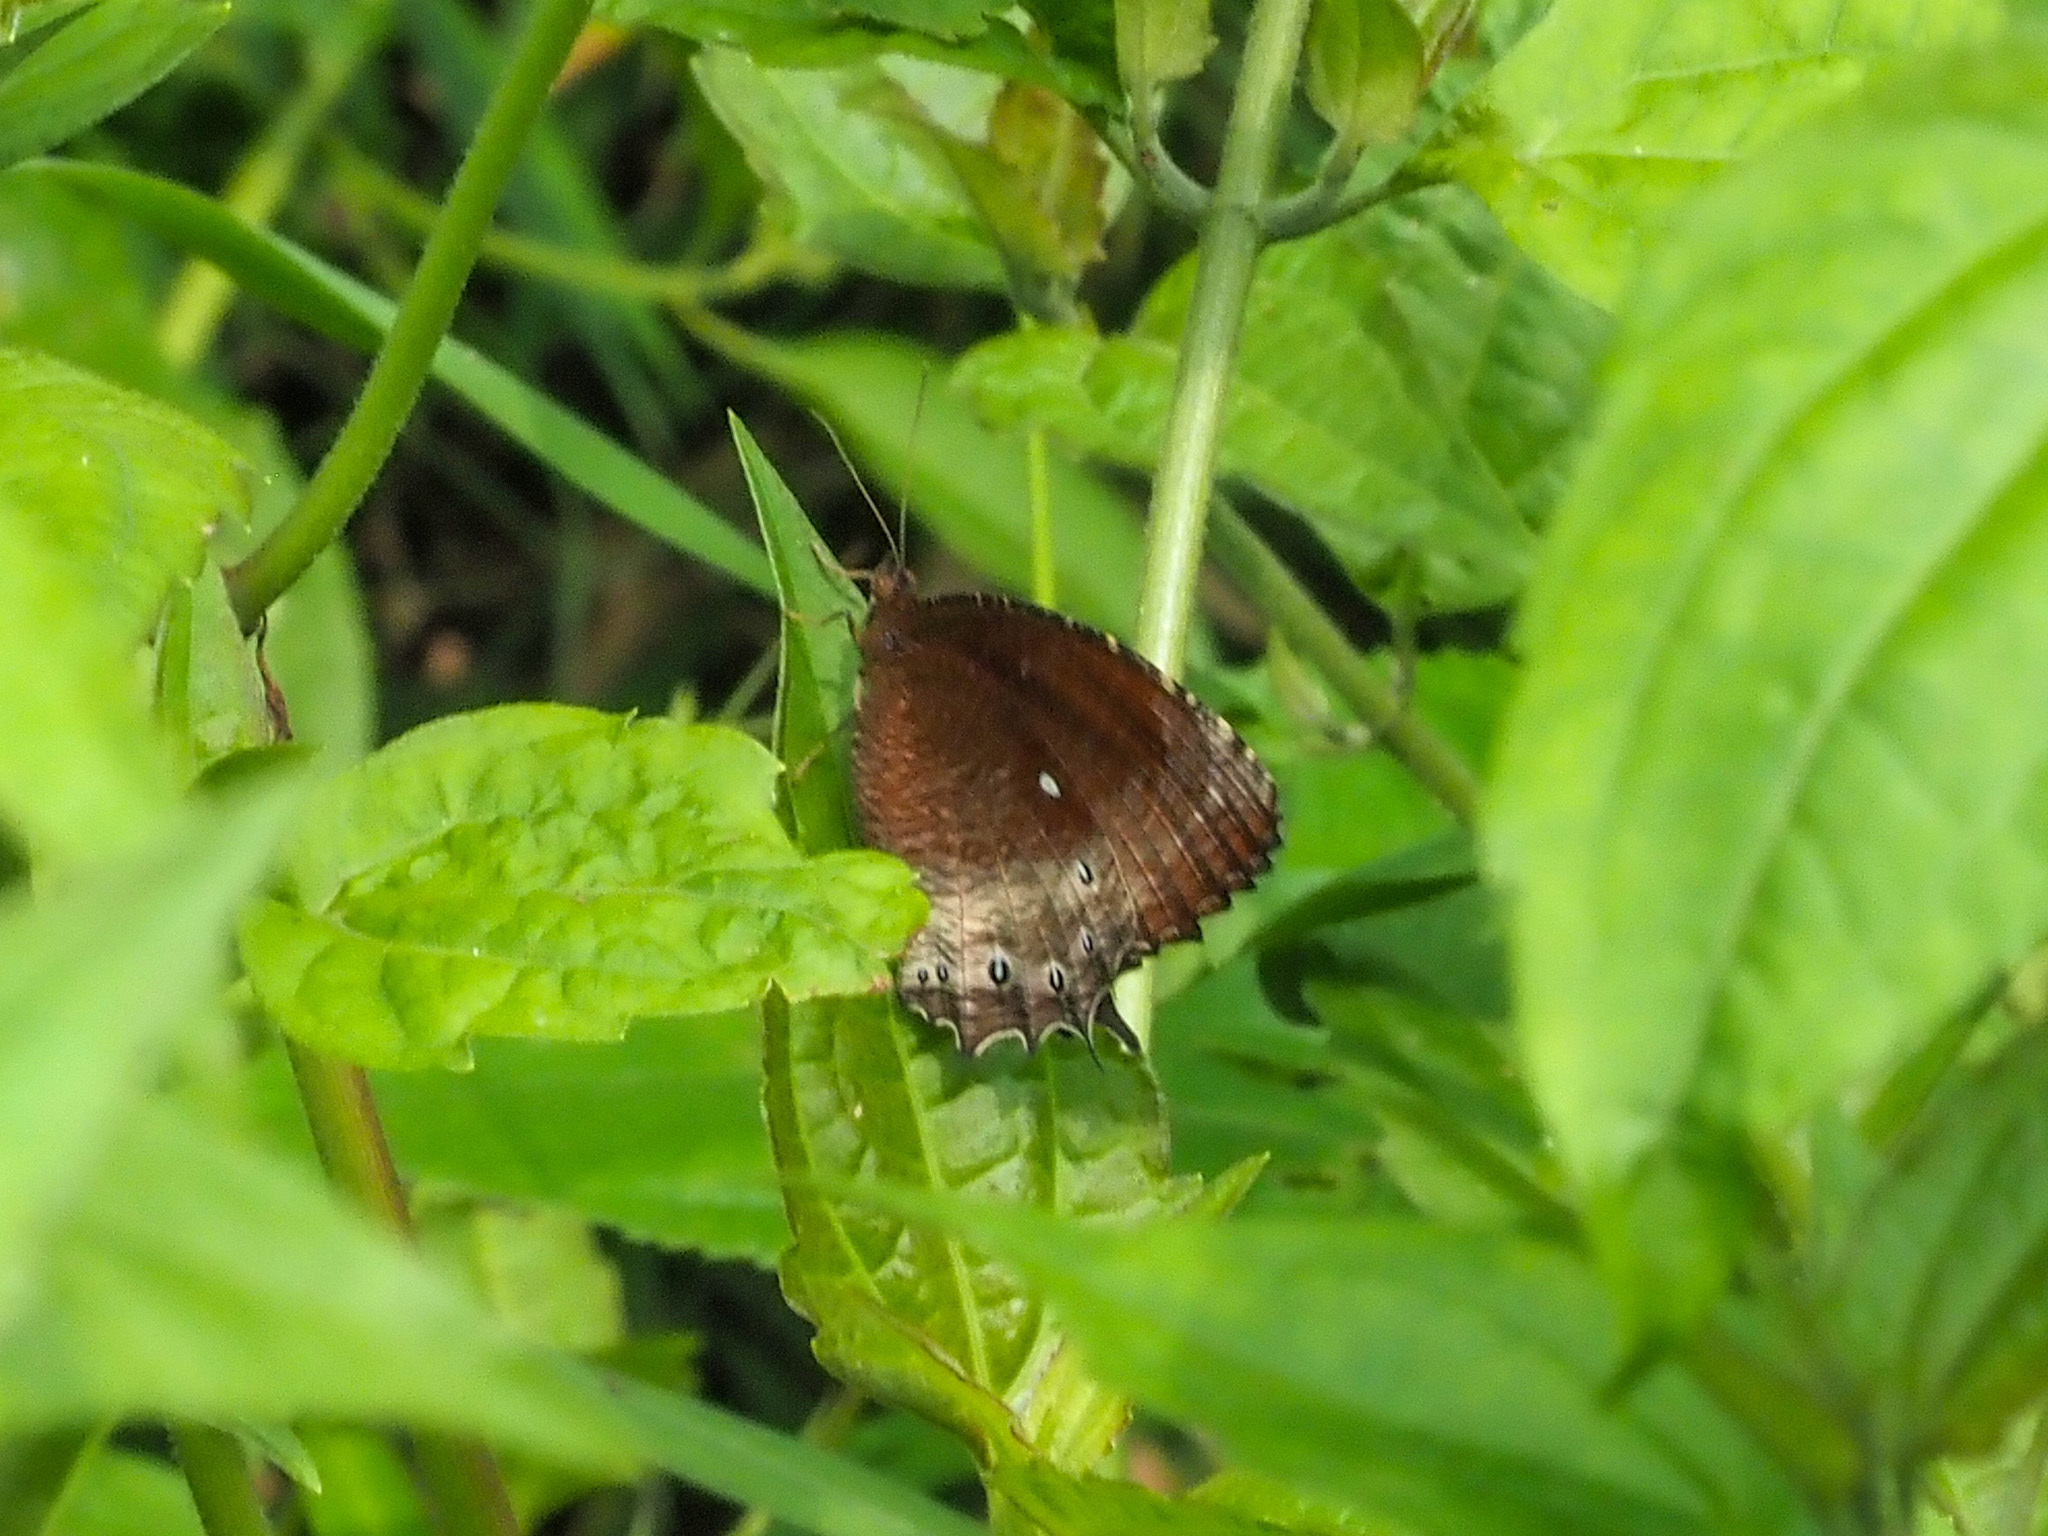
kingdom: Animalia
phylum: Arthropoda
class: Insecta
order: Lepidoptera
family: Nymphalidae
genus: Elymnias
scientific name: Elymnias panthera
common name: Tawny palmfly
